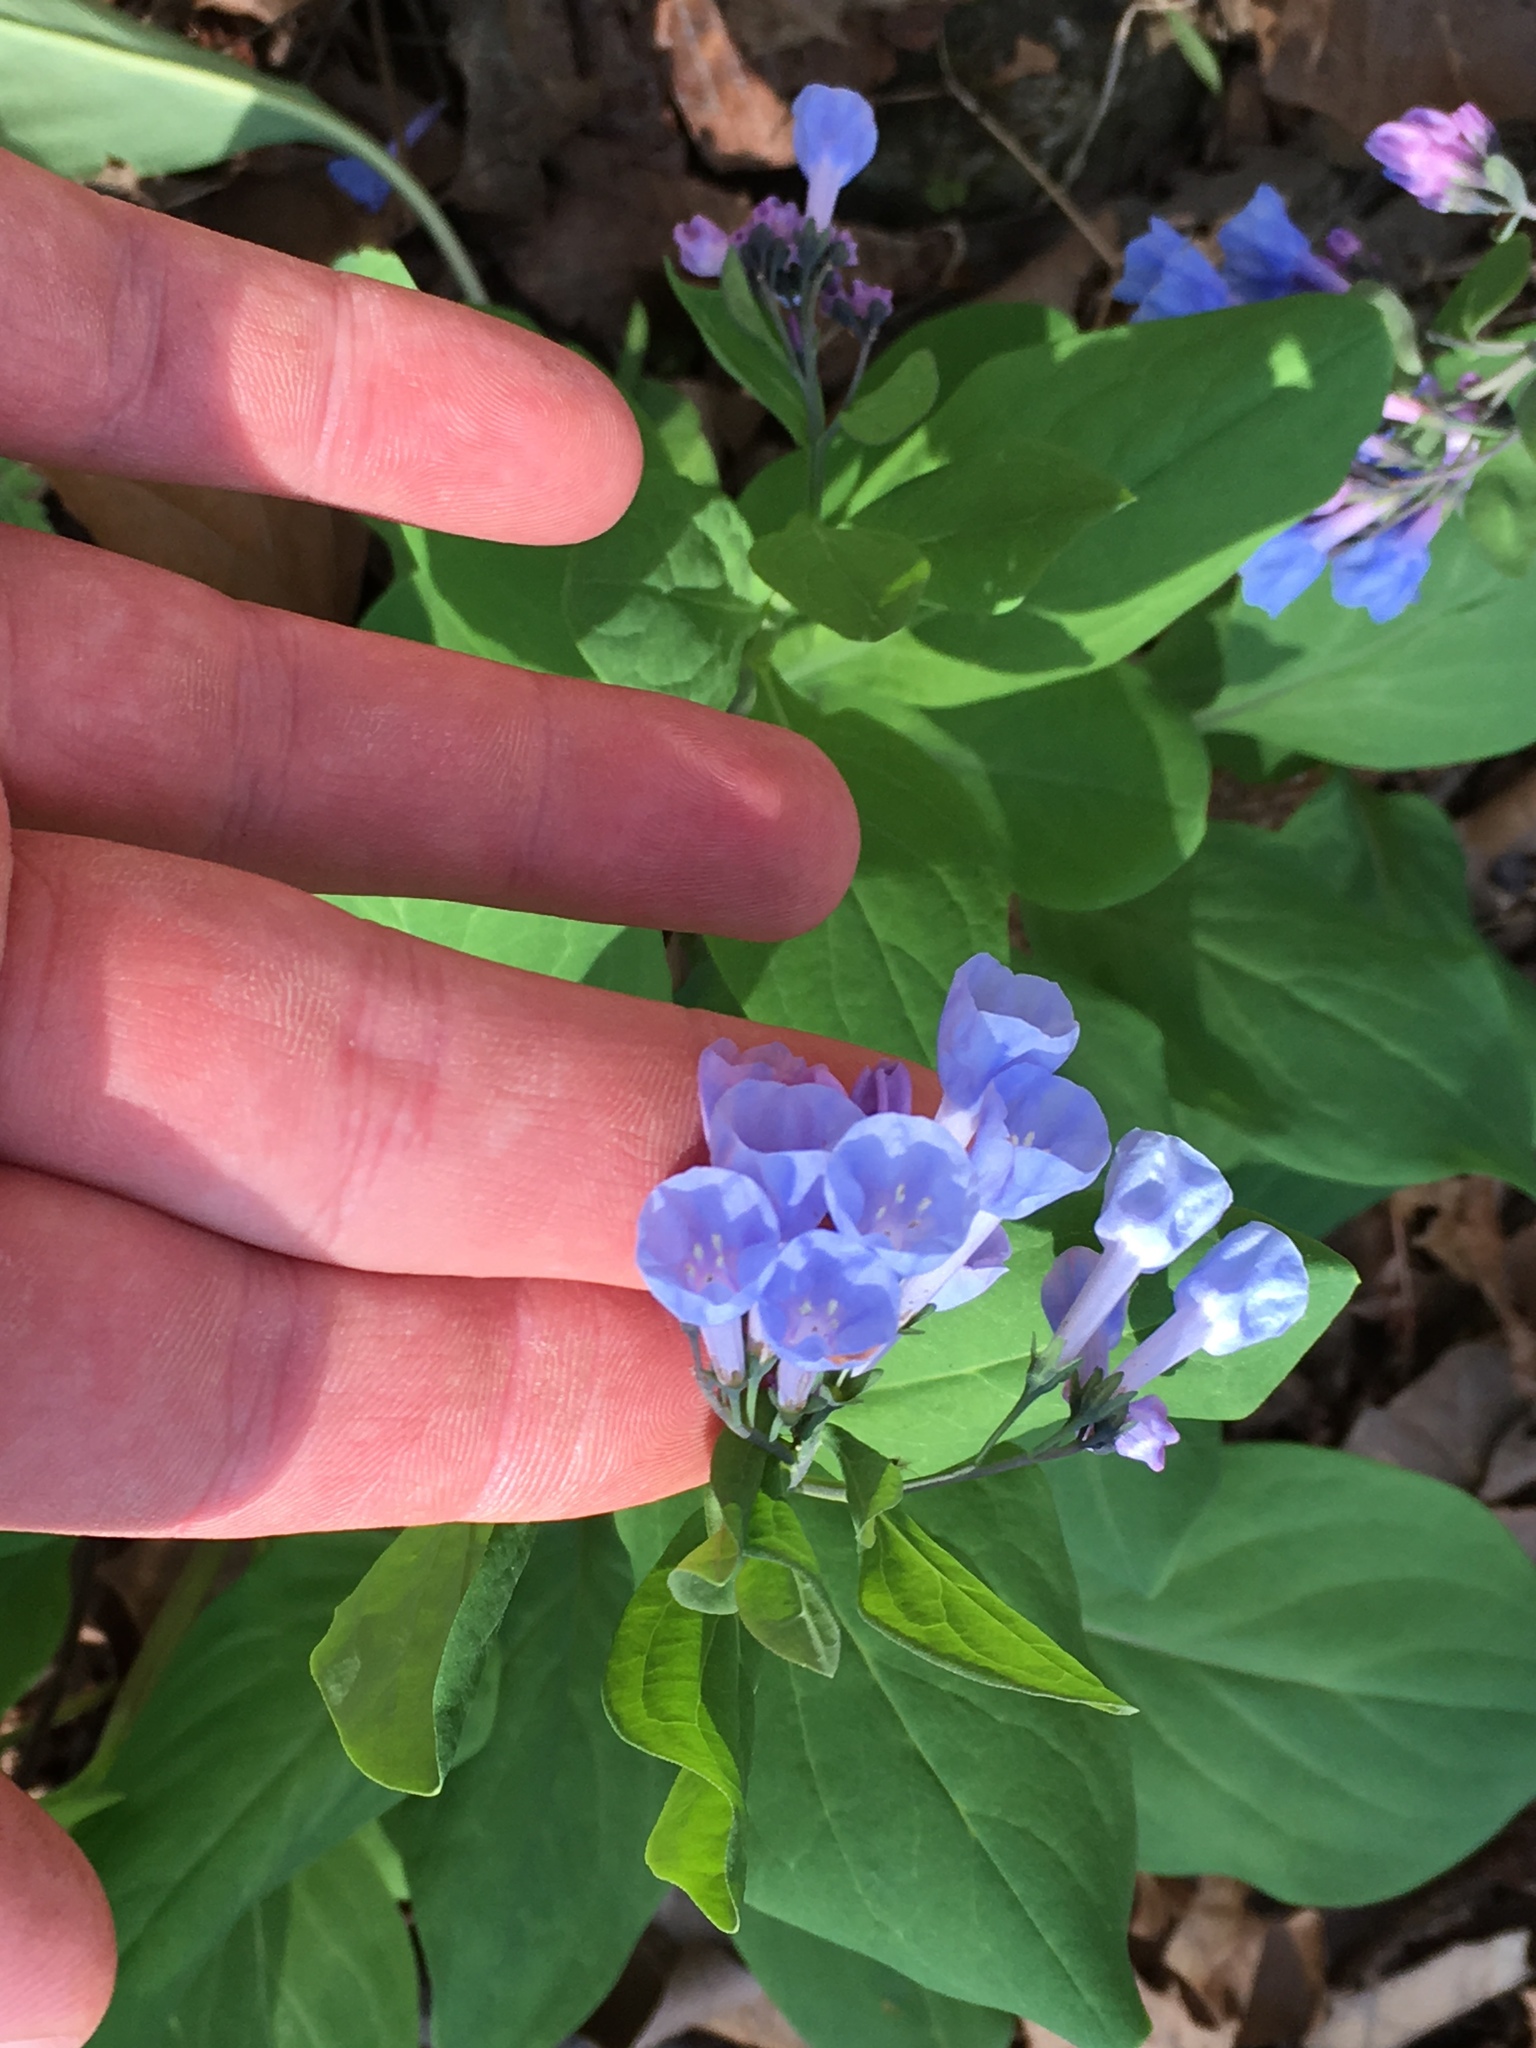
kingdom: Plantae
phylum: Tracheophyta
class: Magnoliopsida
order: Boraginales
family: Boraginaceae
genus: Mertensia
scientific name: Mertensia virginica
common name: Virginia bluebells
